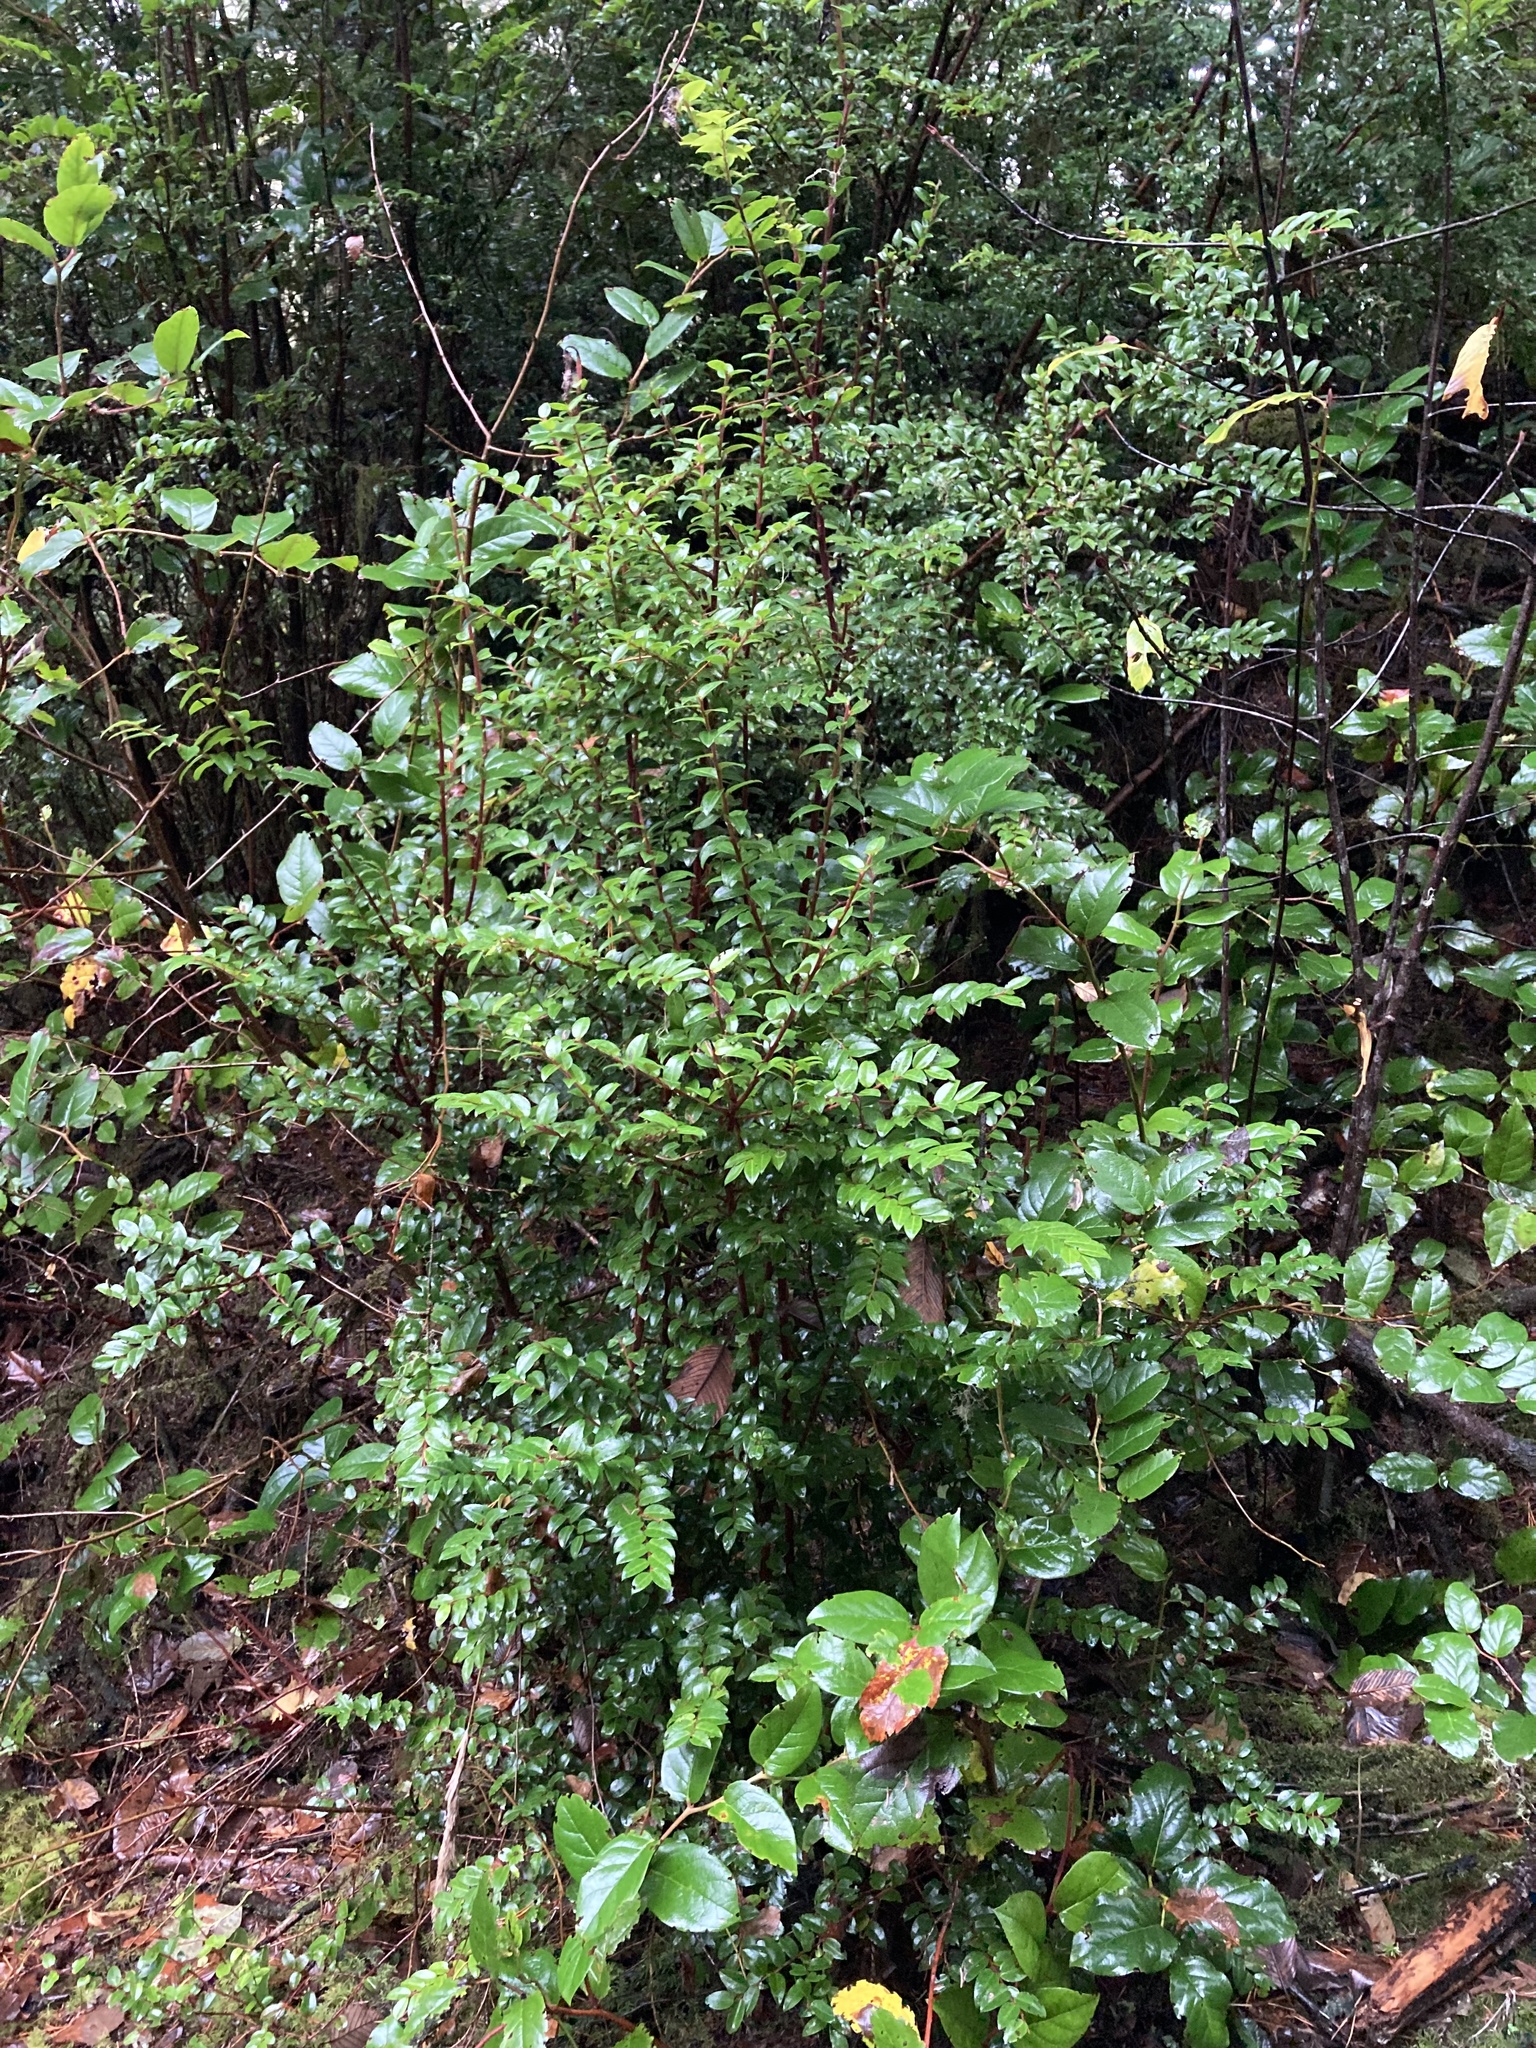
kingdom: Plantae
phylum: Tracheophyta
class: Magnoliopsida
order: Ericales
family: Ericaceae
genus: Vaccinium
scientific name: Vaccinium ovatum
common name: California-huckleberry
